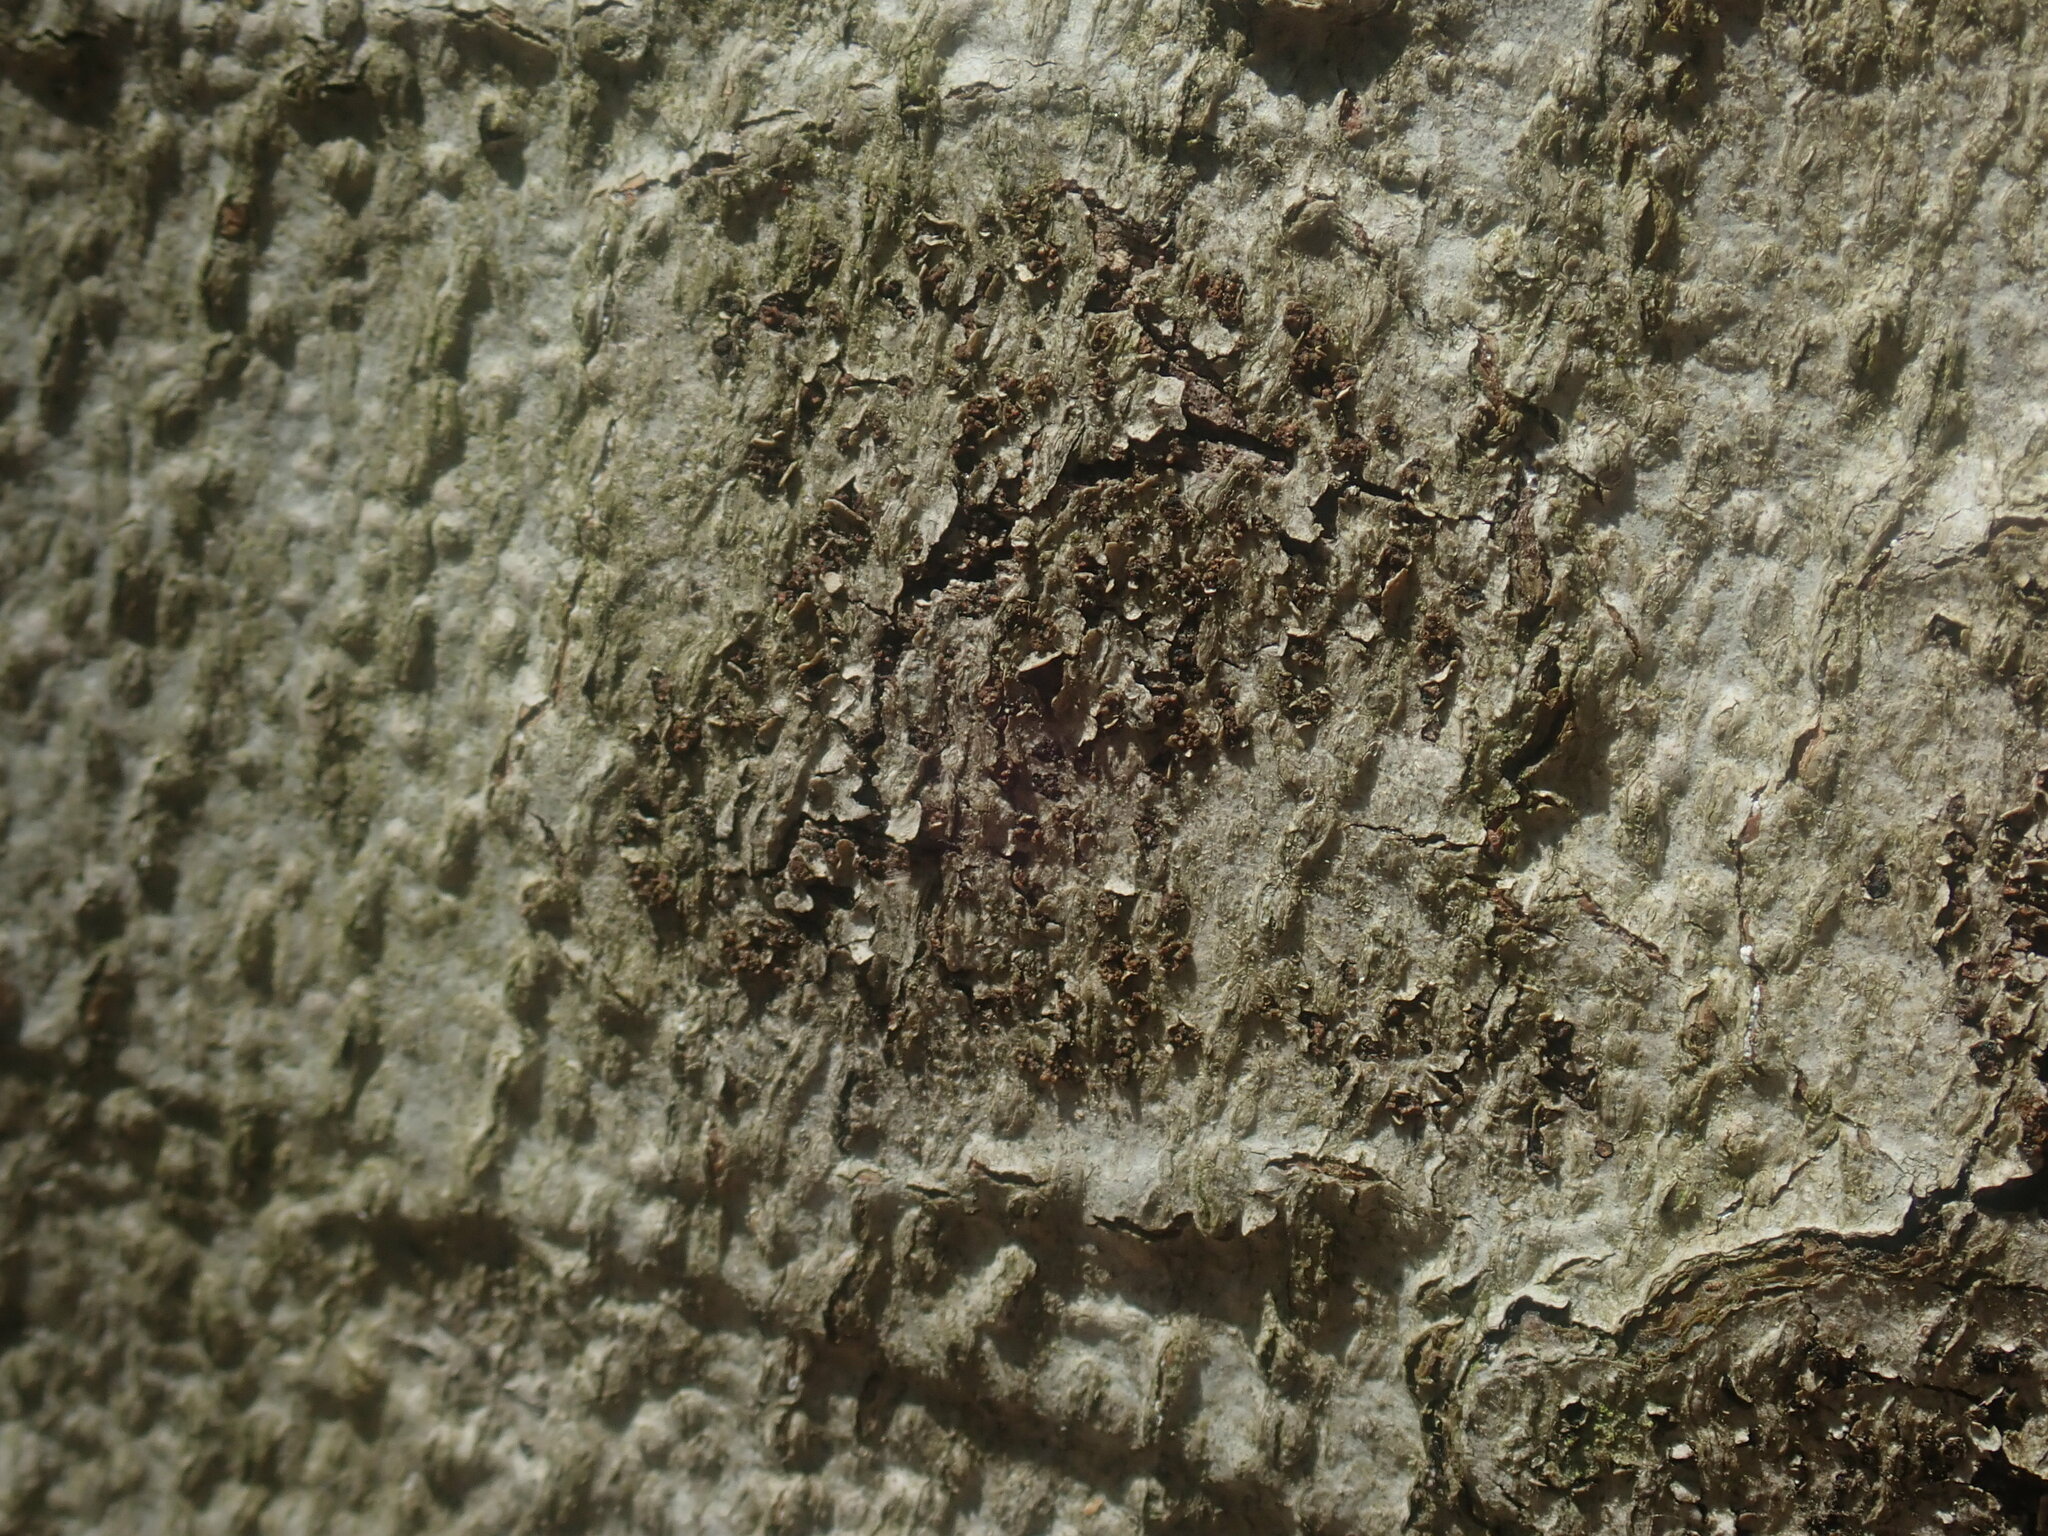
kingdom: Fungi
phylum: Ascomycota
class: Sordariomycetes
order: Hypocreales
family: Nectriaceae
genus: Neonectria
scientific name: Neonectria faginata
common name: Beech bark canker
